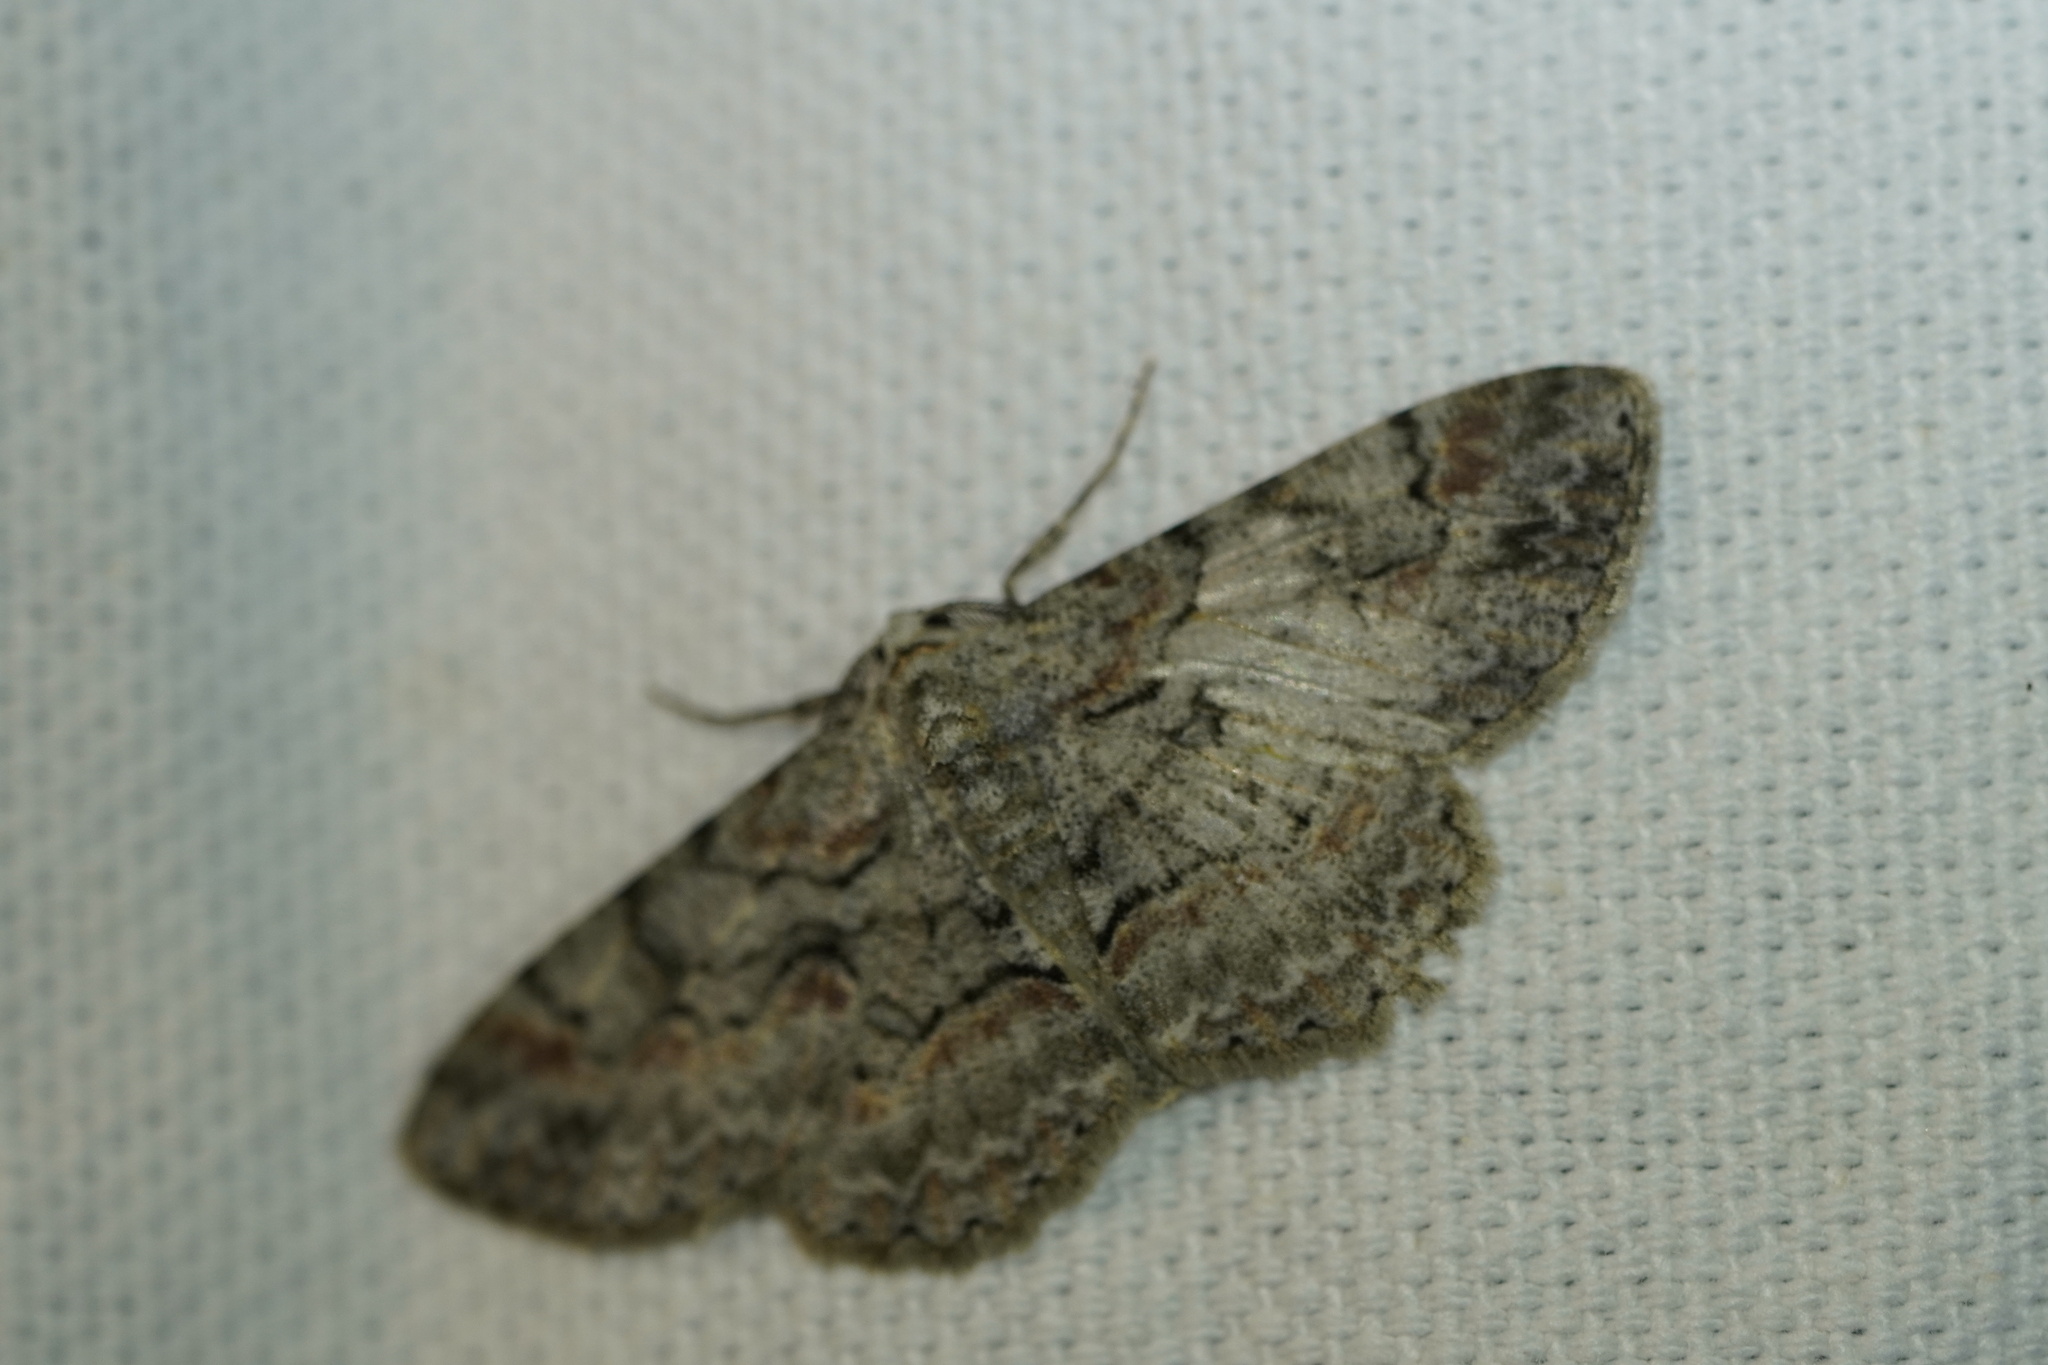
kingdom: Animalia
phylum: Arthropoda
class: Insecta
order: Lepidoptera
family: Geometridae
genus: Iridopsis
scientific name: Iridopsis defectaria
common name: Brown-shaded gray
